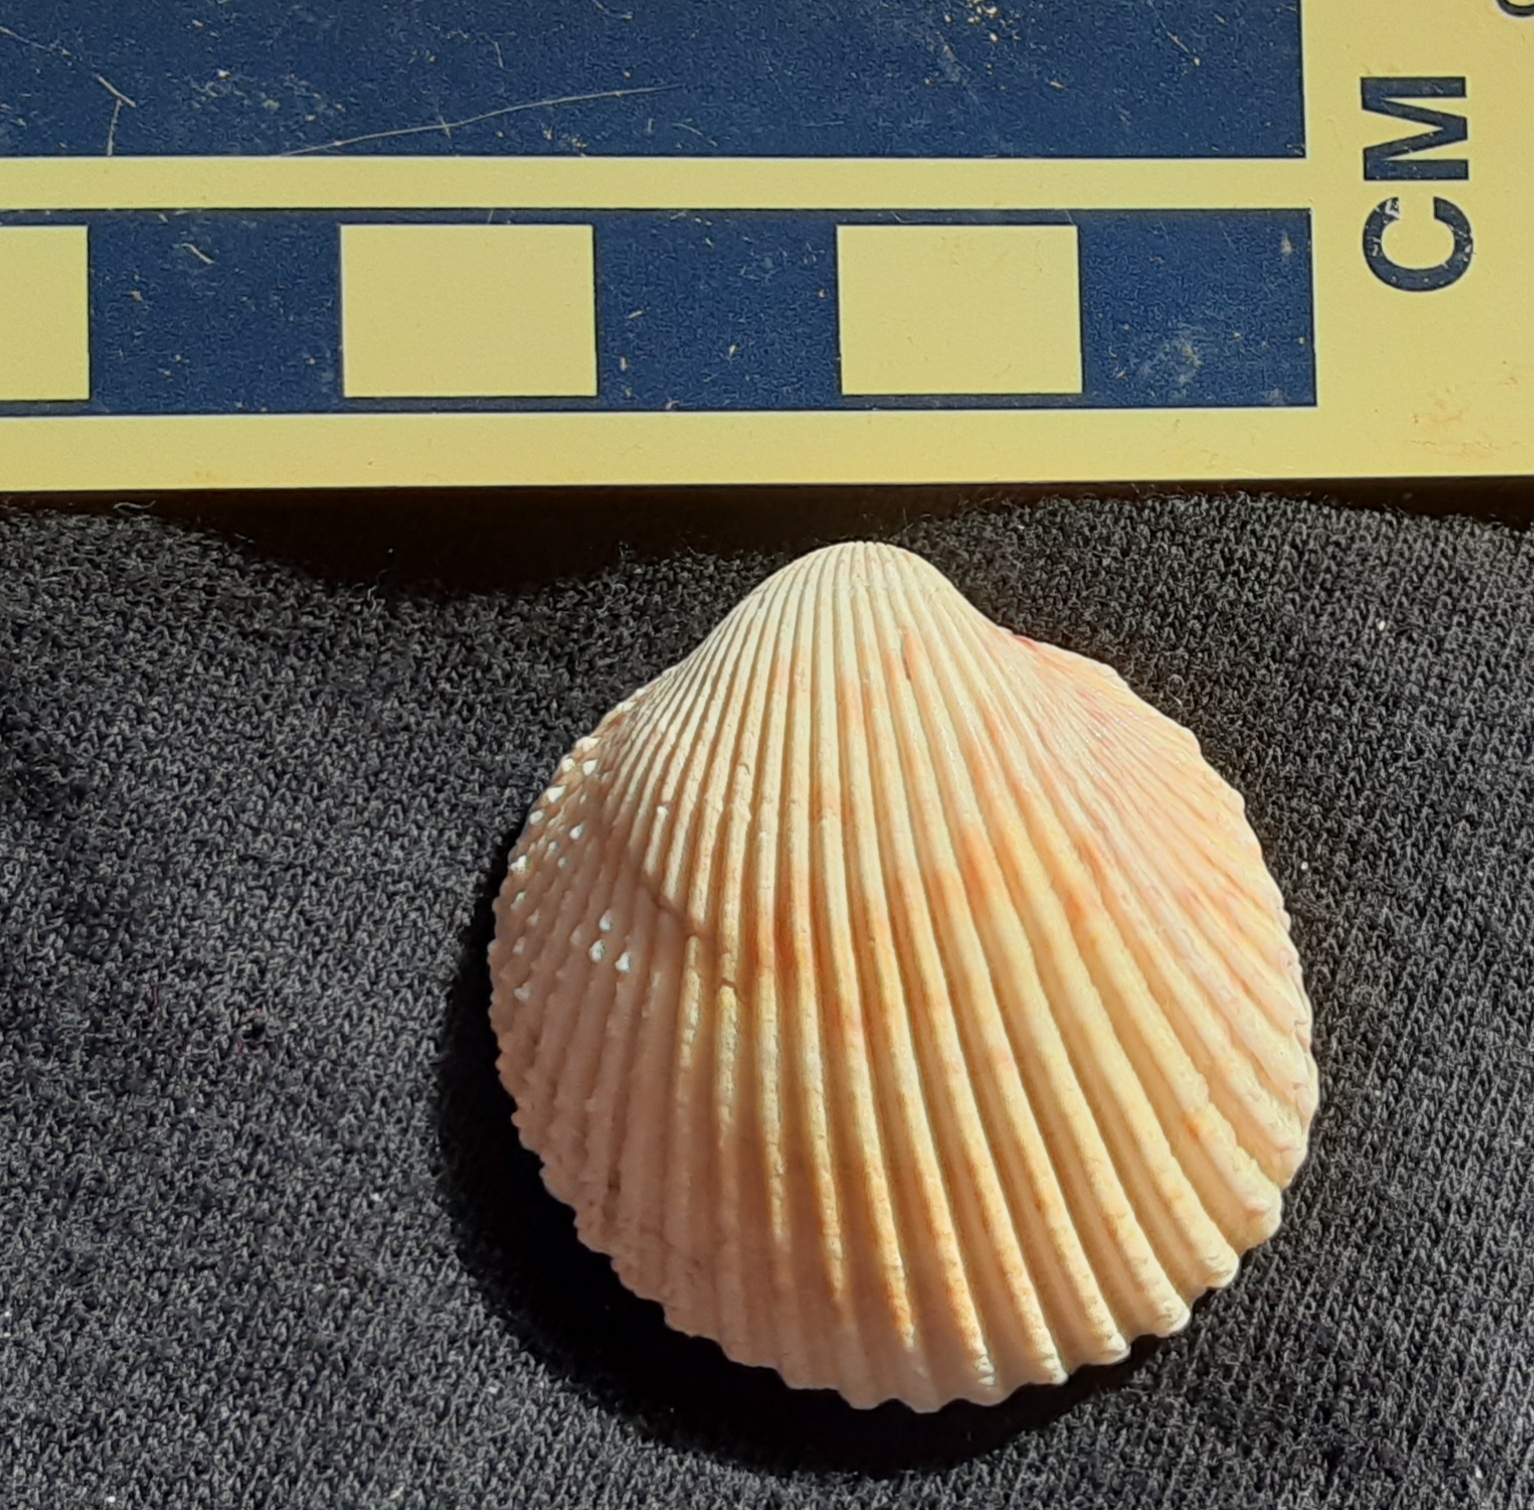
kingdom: Animalia
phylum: Mollusca
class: Bivalvia
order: Cardiida
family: Cardiidae
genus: Dallocardia
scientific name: Dallocardia muricata
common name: Yellow pricklycockle
